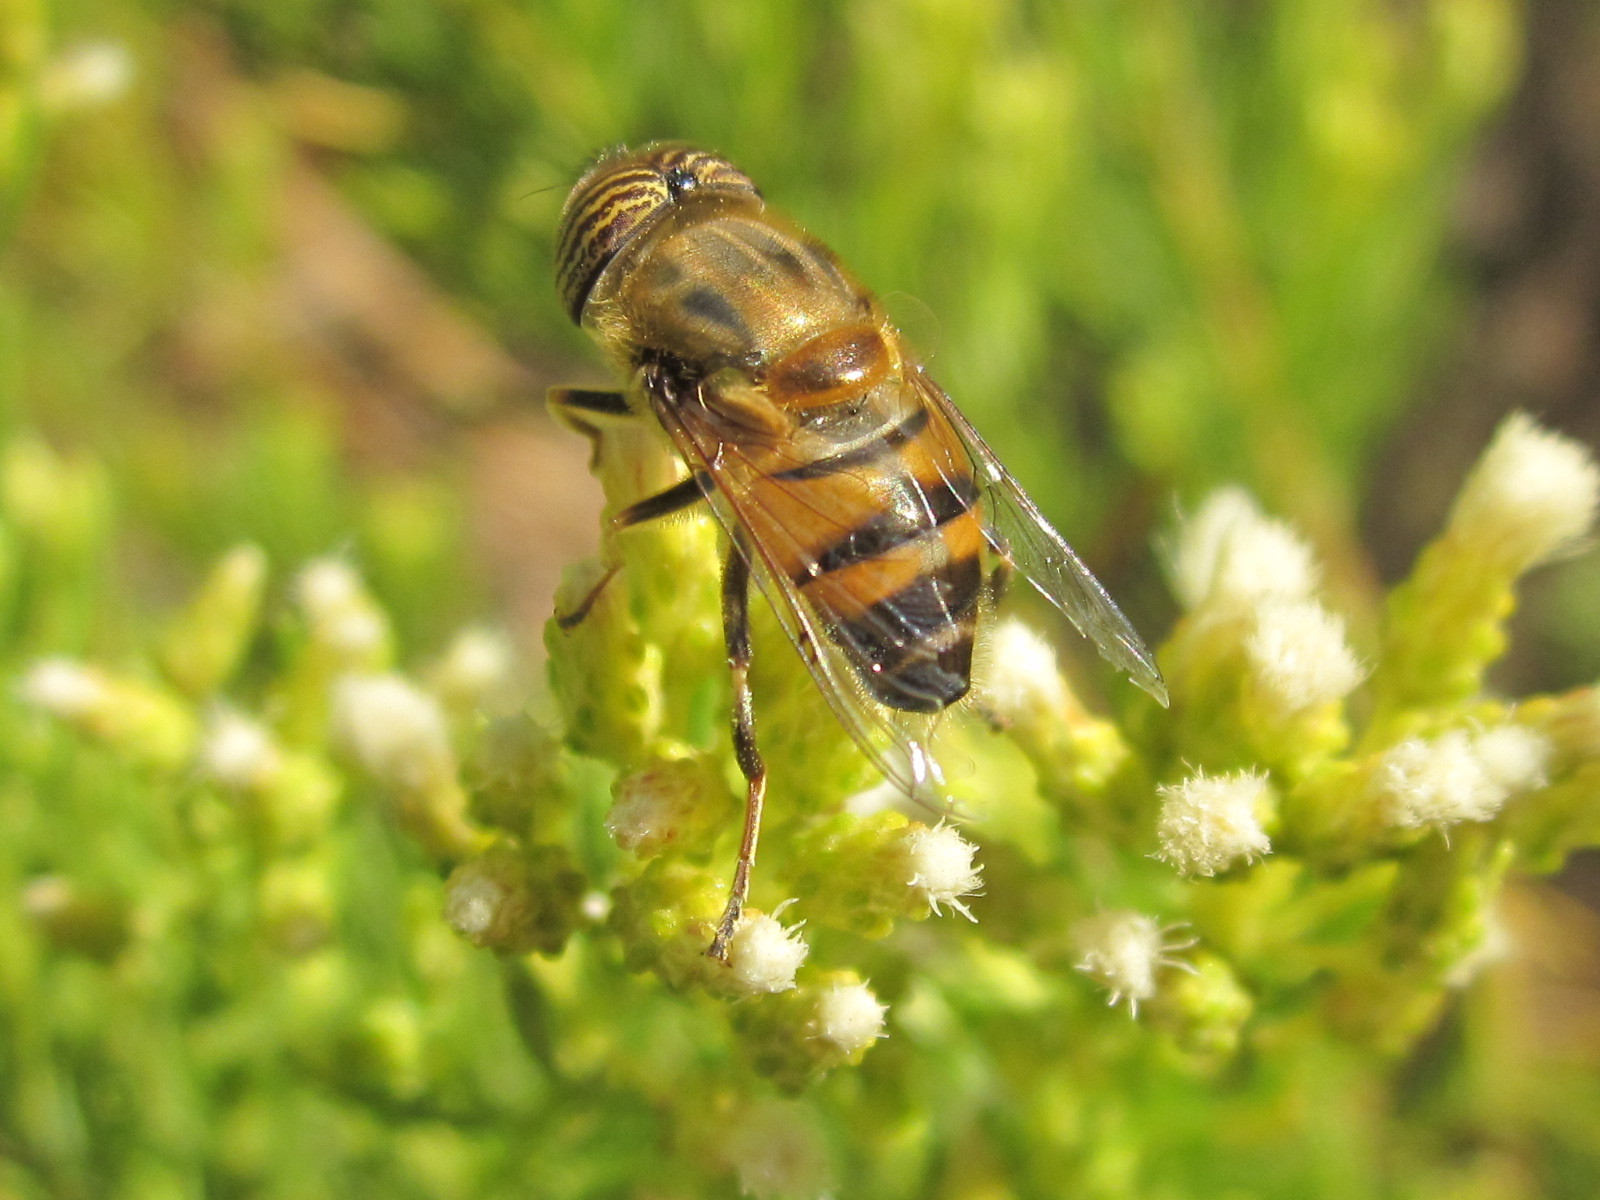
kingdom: Animalia
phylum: Arthropoda
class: Insecta
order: Diptera
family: Syrphidae
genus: Eristalinus
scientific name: Eristalinus taeniops
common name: Syrphid fly
